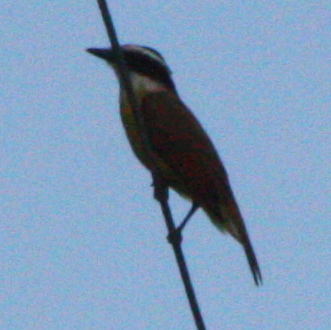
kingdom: Animalia
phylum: Chordata
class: Aves
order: Passeriformes
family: Tyrannidae
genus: Pitangus
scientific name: Pitangus sulphuratus
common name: Great kiskadee
